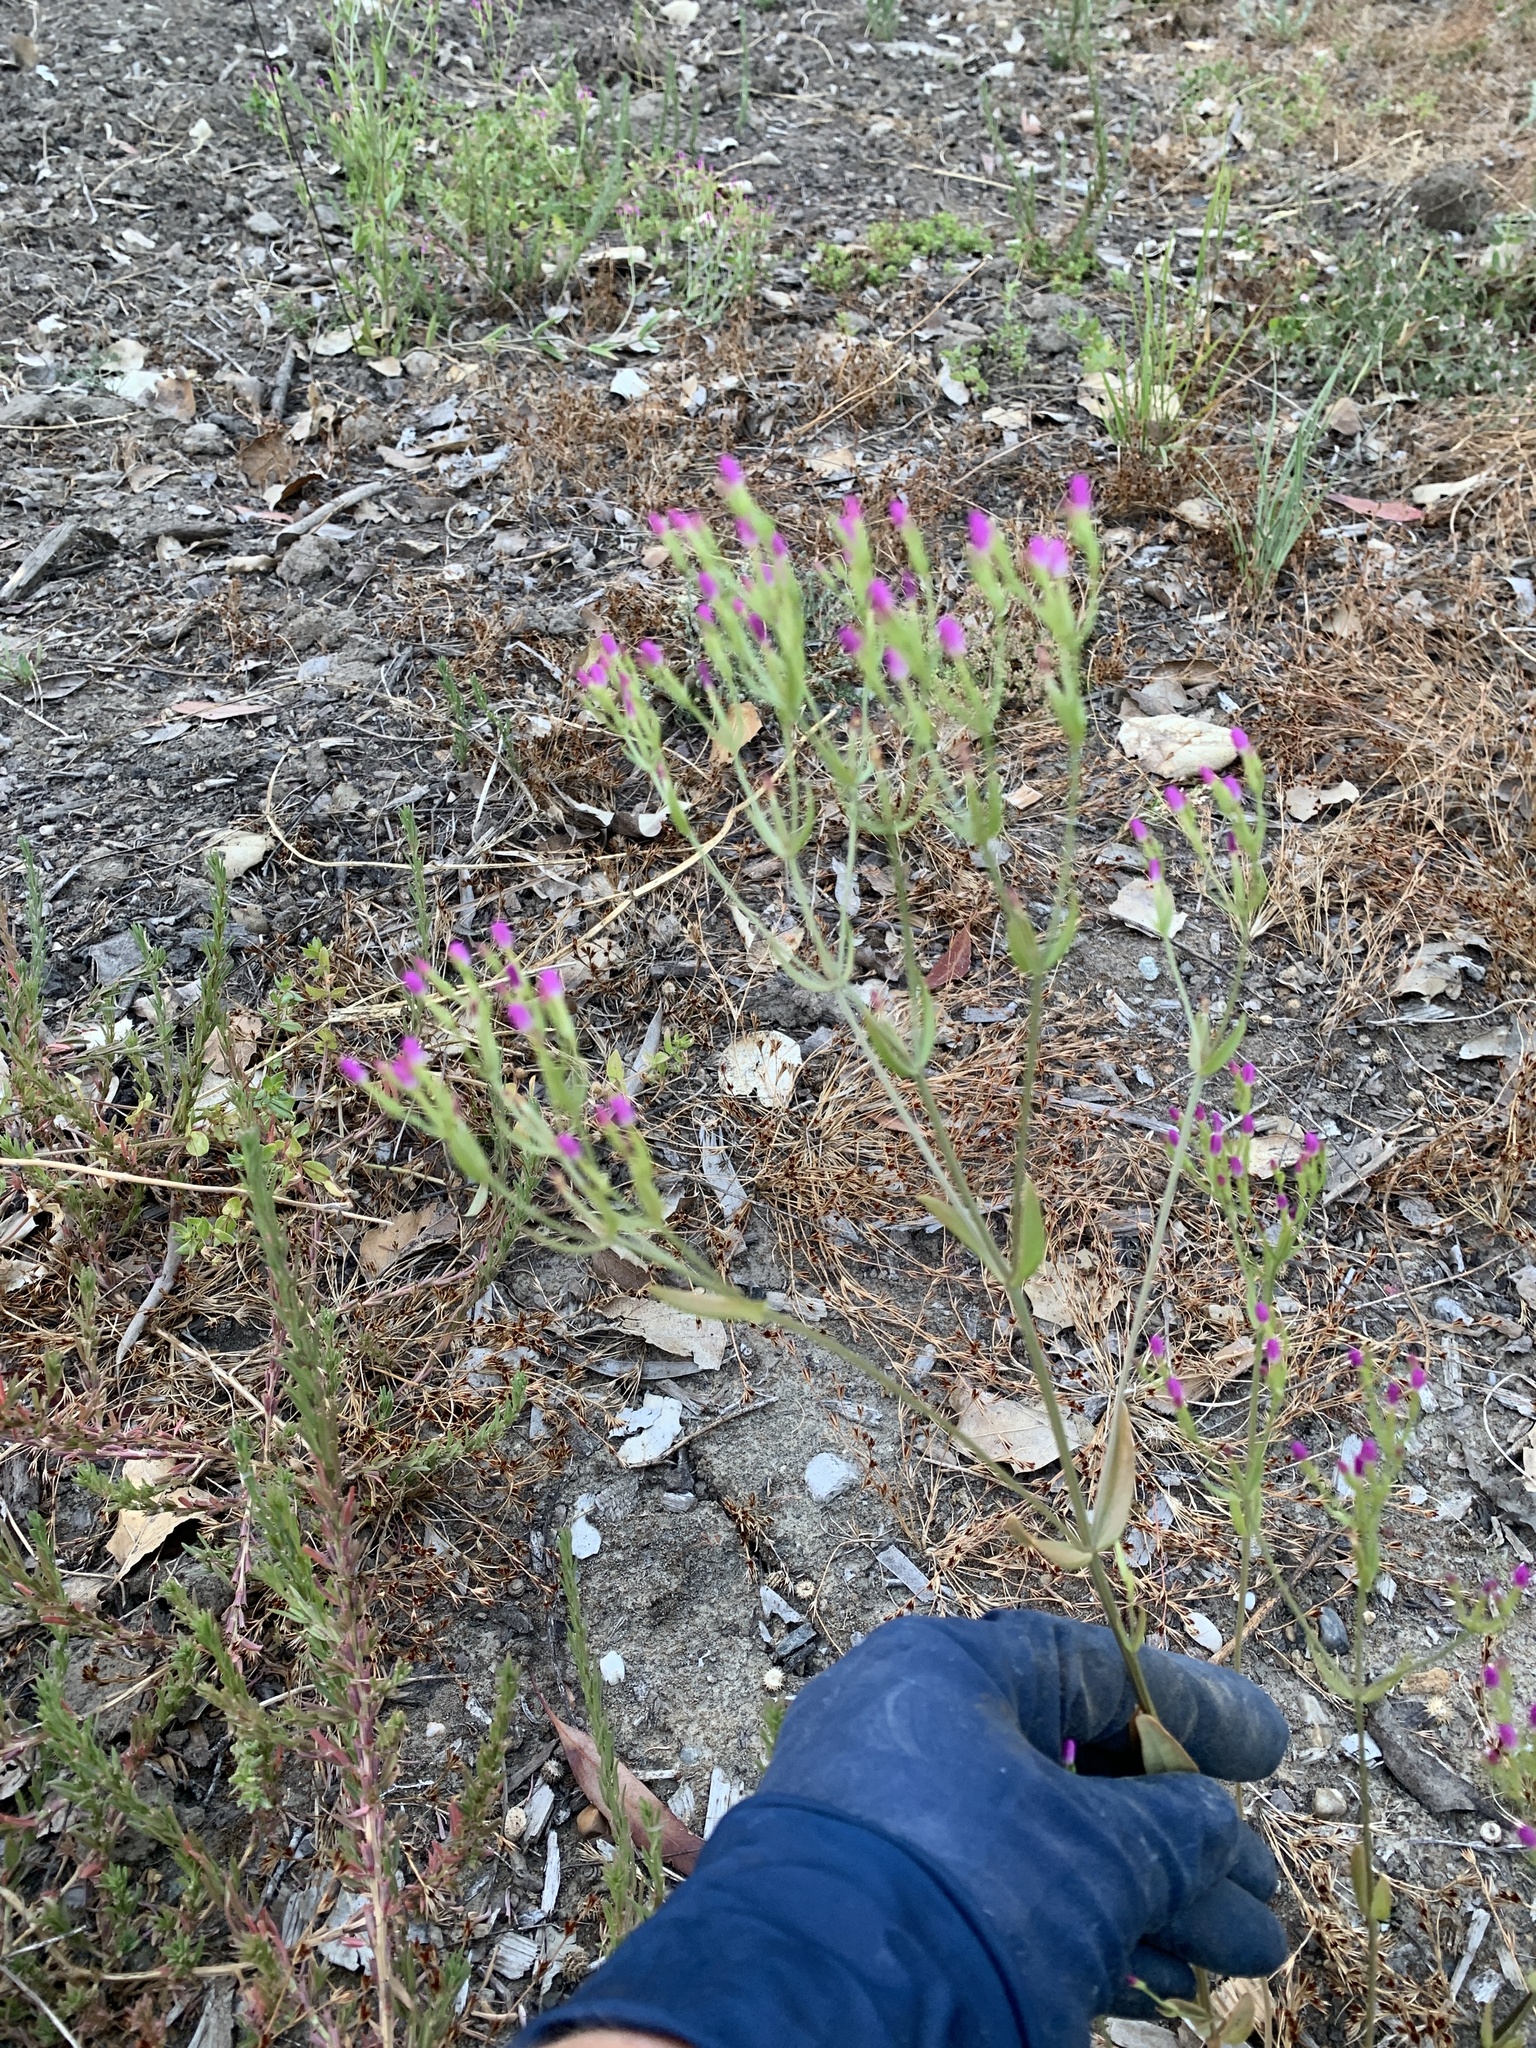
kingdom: Plantae
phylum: Tracheophyta
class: Magnoliopsida
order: Gentianales
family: Gentianaceae
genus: Zeltnera
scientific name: Zeltnera muhlenbergii
